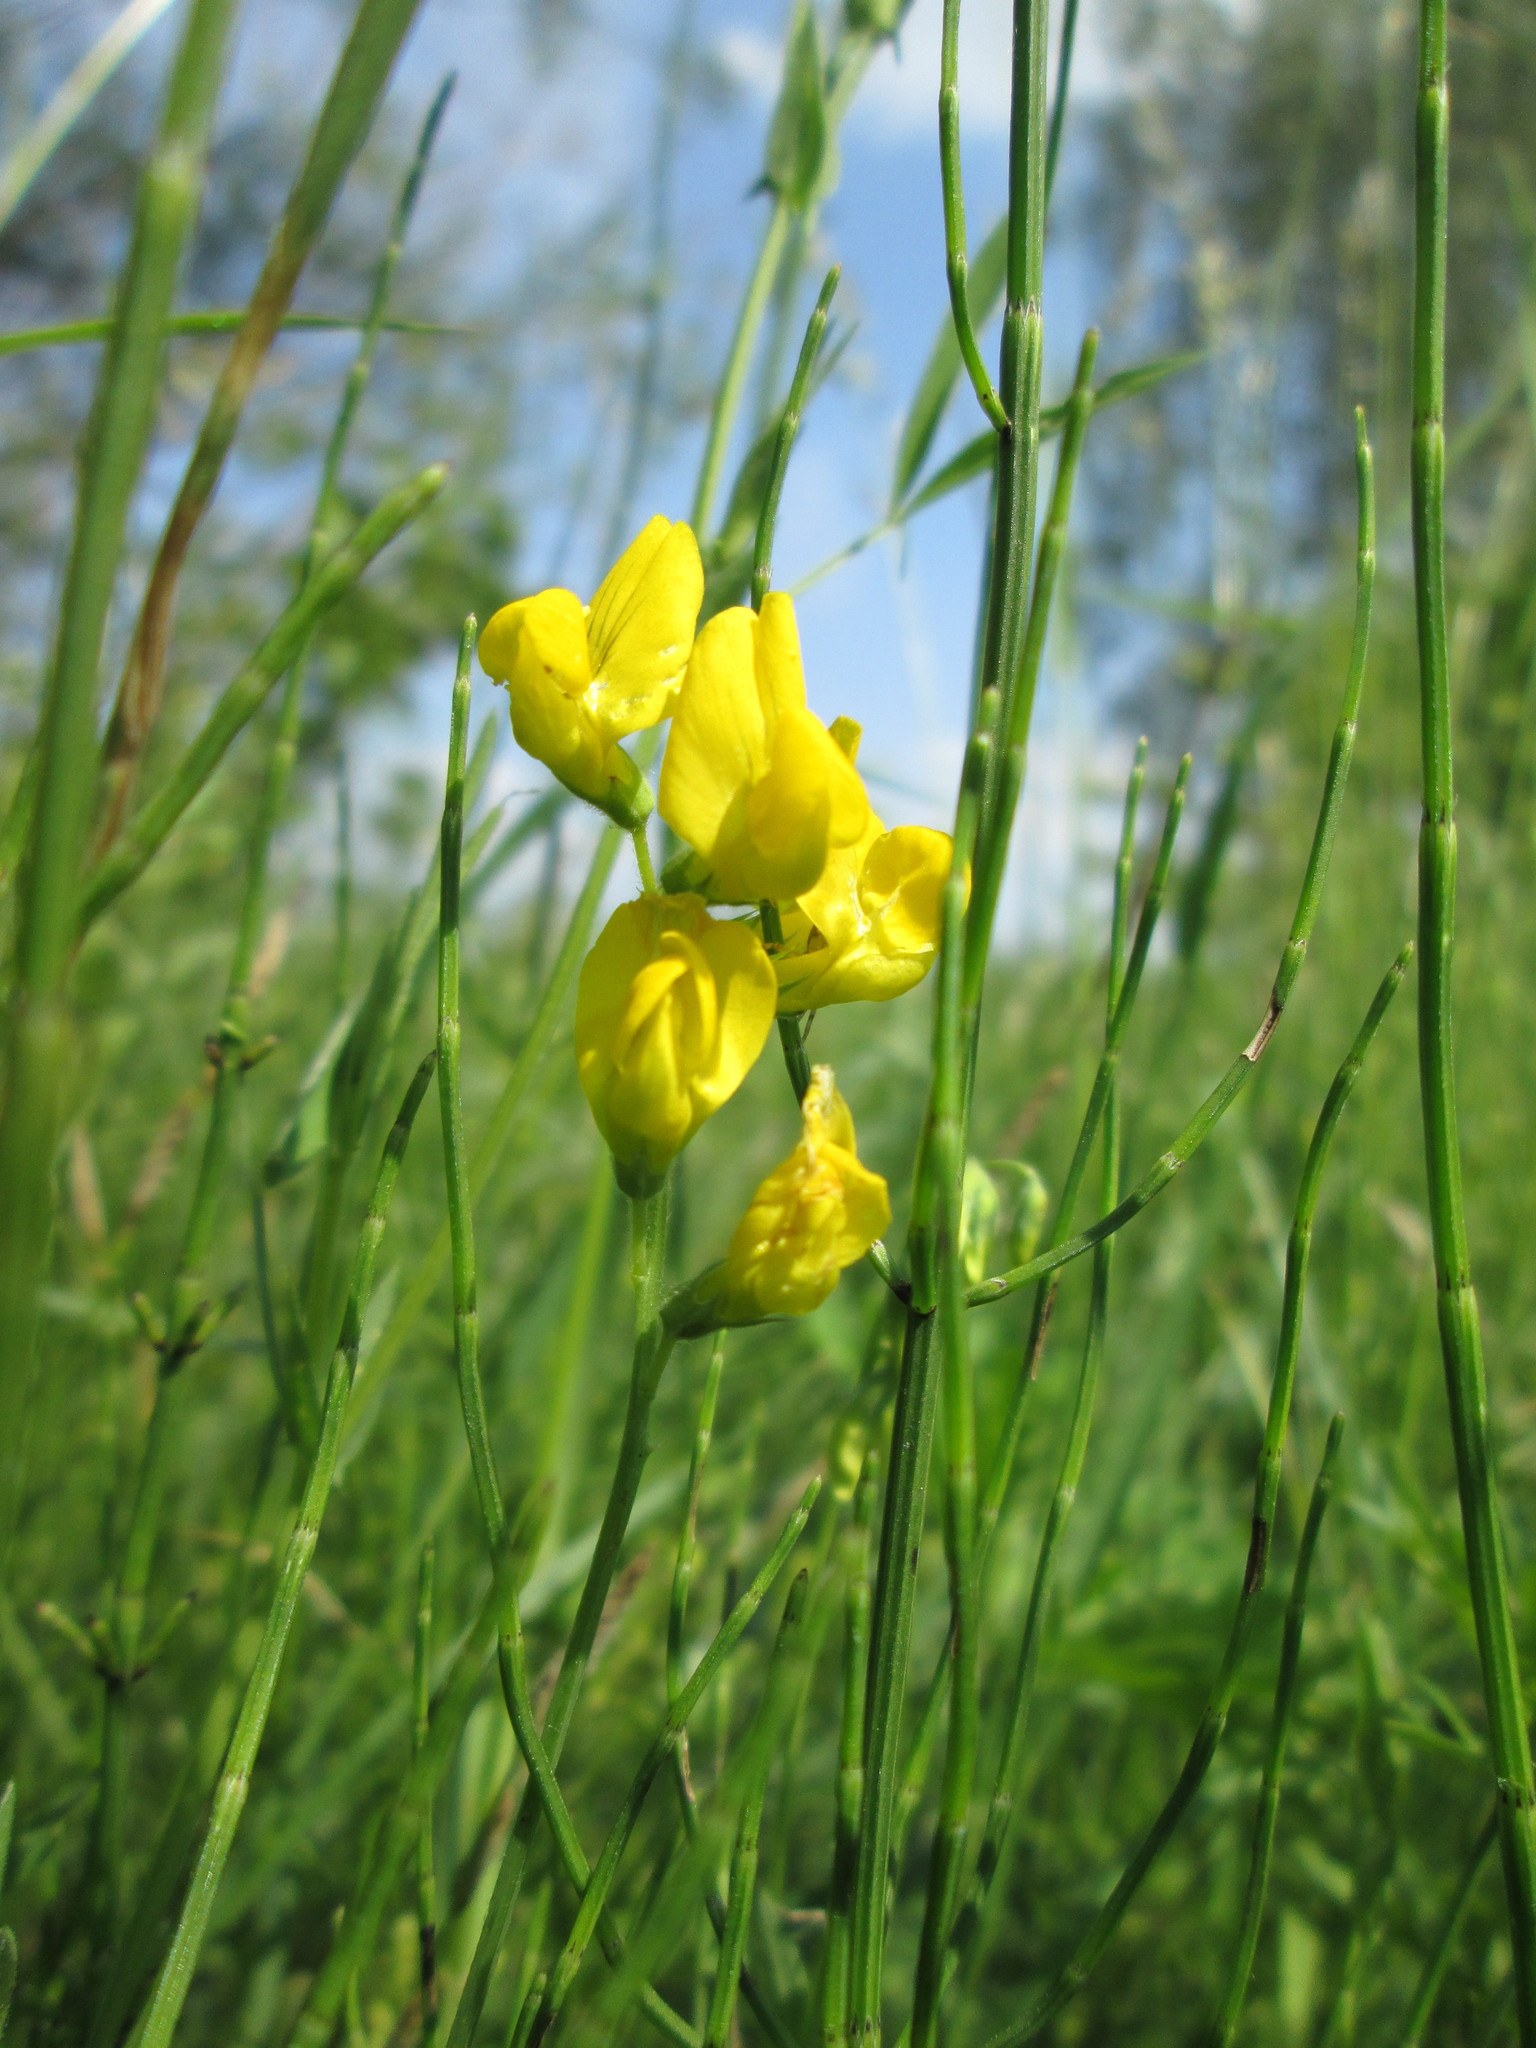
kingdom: Plantae
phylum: Tracheophyta
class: Magnoliopsida
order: Fabales
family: Fabaceae
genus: Lathyrus
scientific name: Lathyrus pratensis
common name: Meadow vetchling
